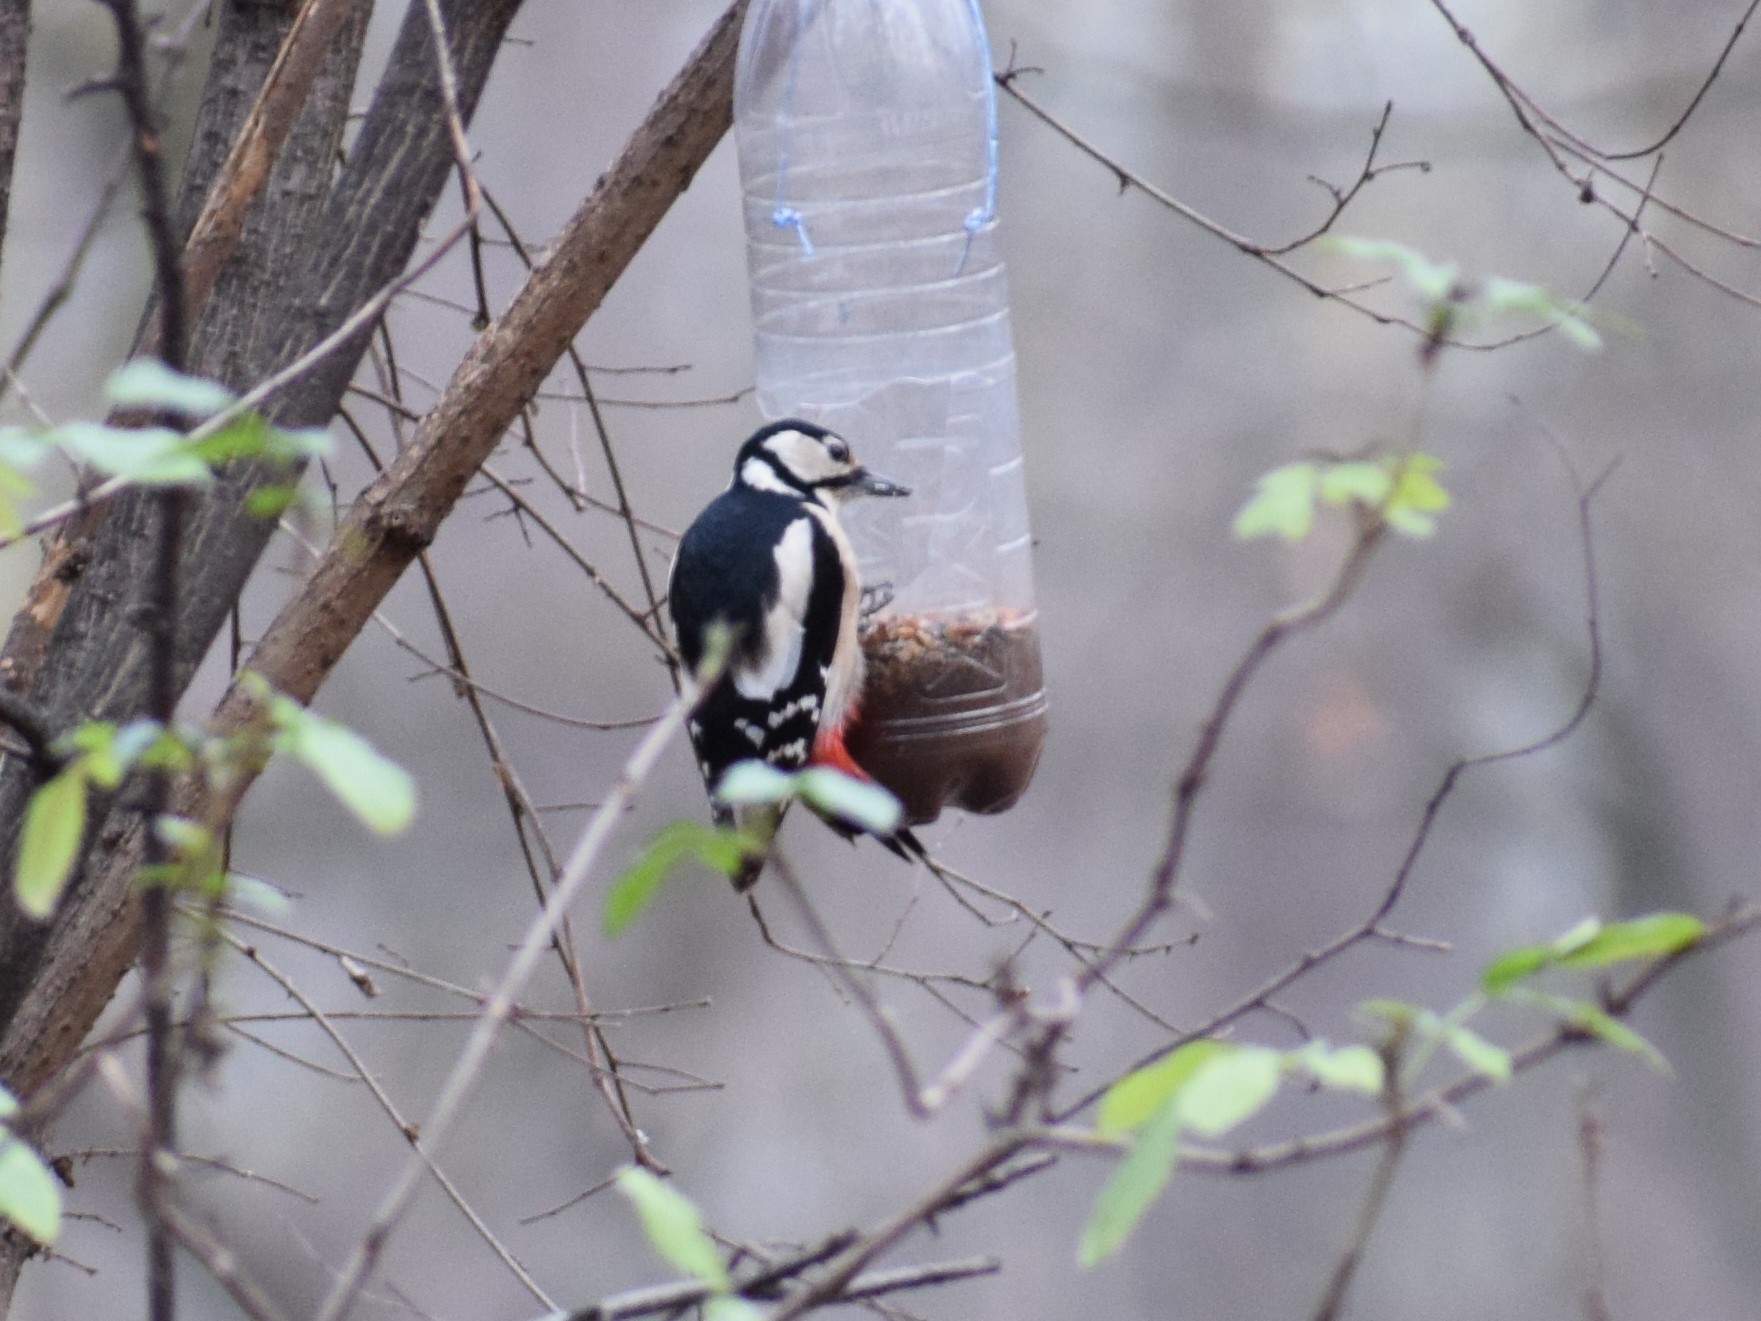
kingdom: Animalia
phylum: Chordata
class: Aves
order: Piciformes
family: Picidae
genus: Dendrocopos
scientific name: Dendrocopos major
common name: Great spotted woodpecker
